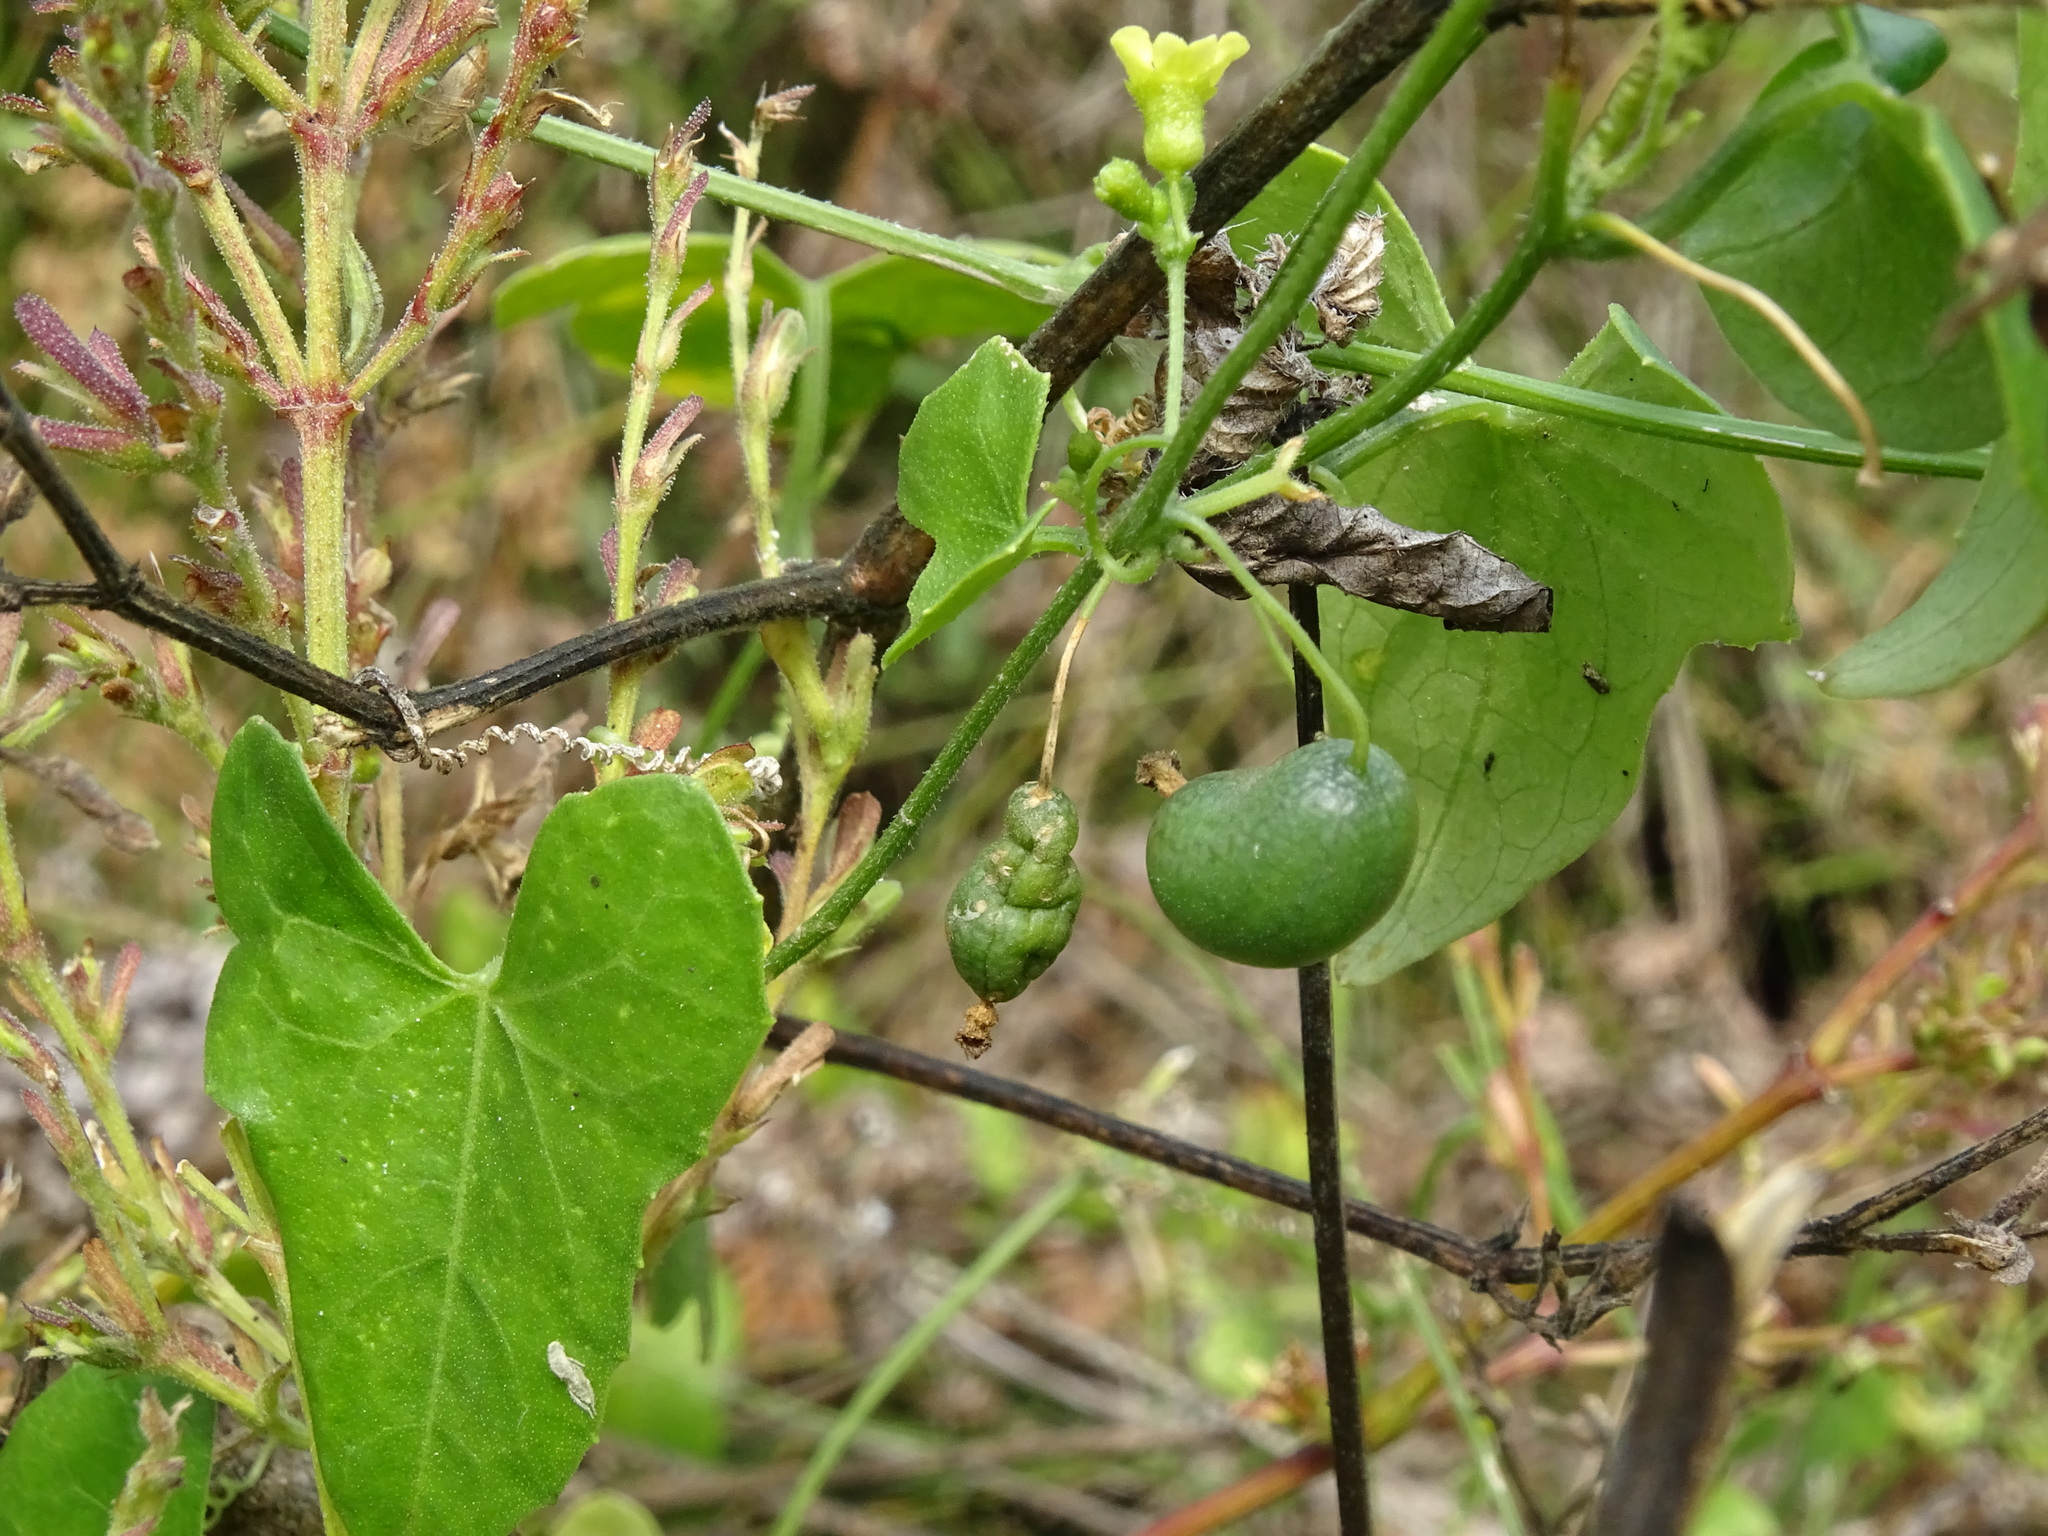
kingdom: Plantae
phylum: Tracheophyta
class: Magnoliopsida
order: Cucurbitales
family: Cucurbitaceae
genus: Melothria
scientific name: Melothria pendula
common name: Creeping-cucumber
